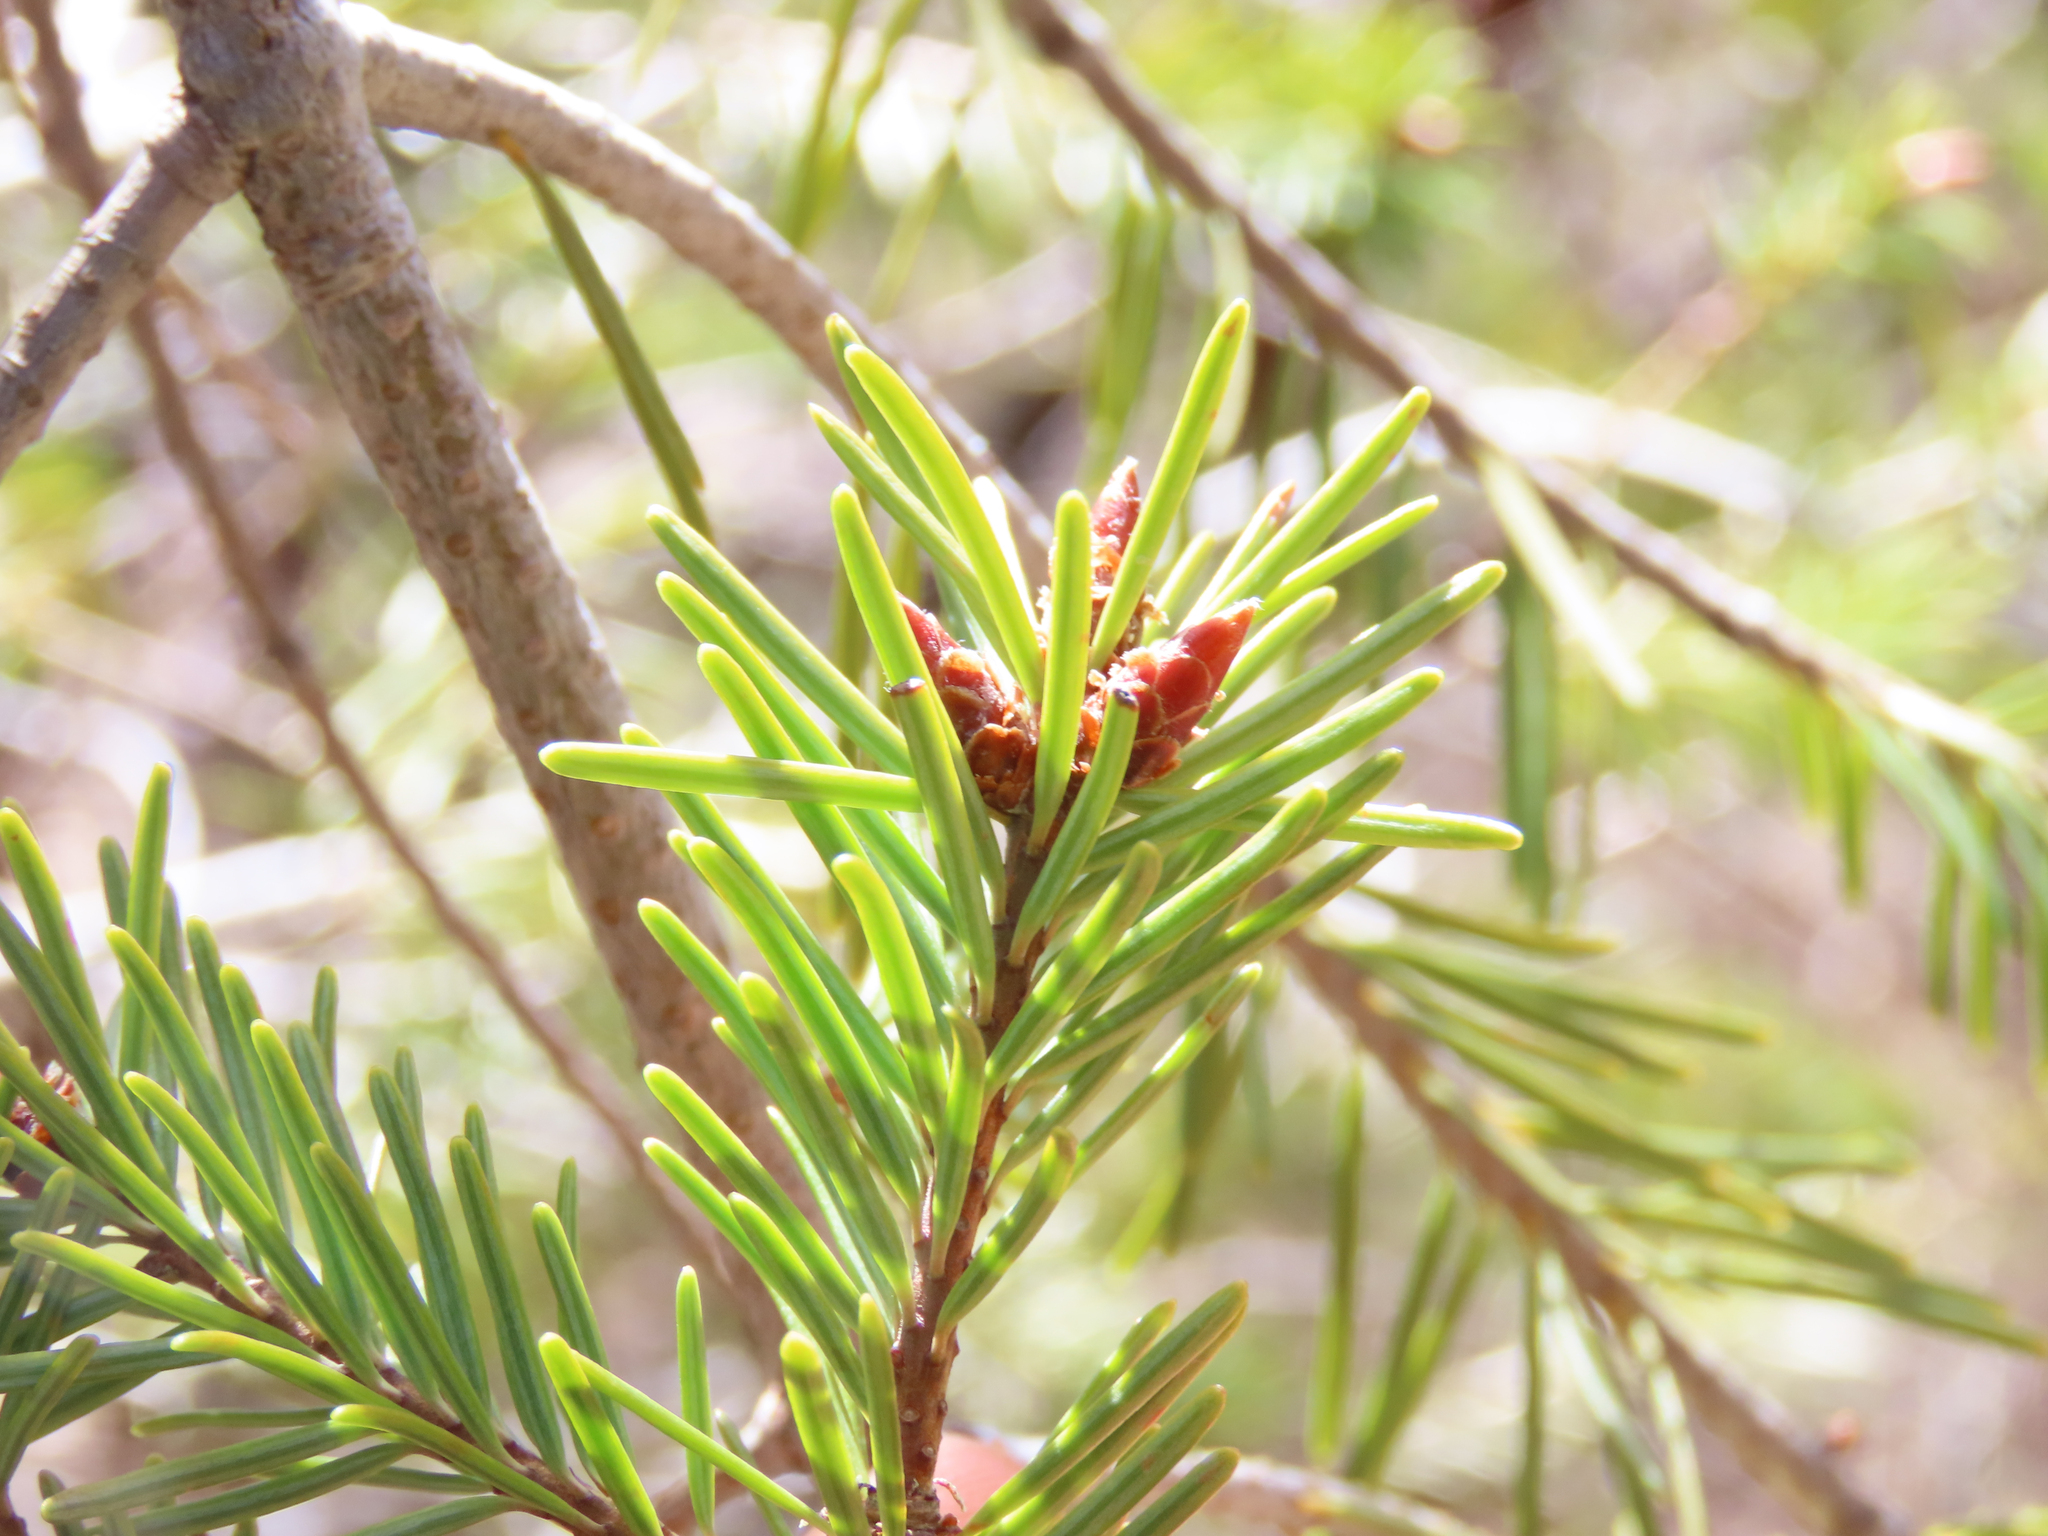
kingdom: Plantae
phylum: Tracheophyta
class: Pinopsida
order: Pinales
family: Pinaceae
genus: Pseudotsuga
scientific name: Pseudotsuga menziesii
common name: Douglas fir
